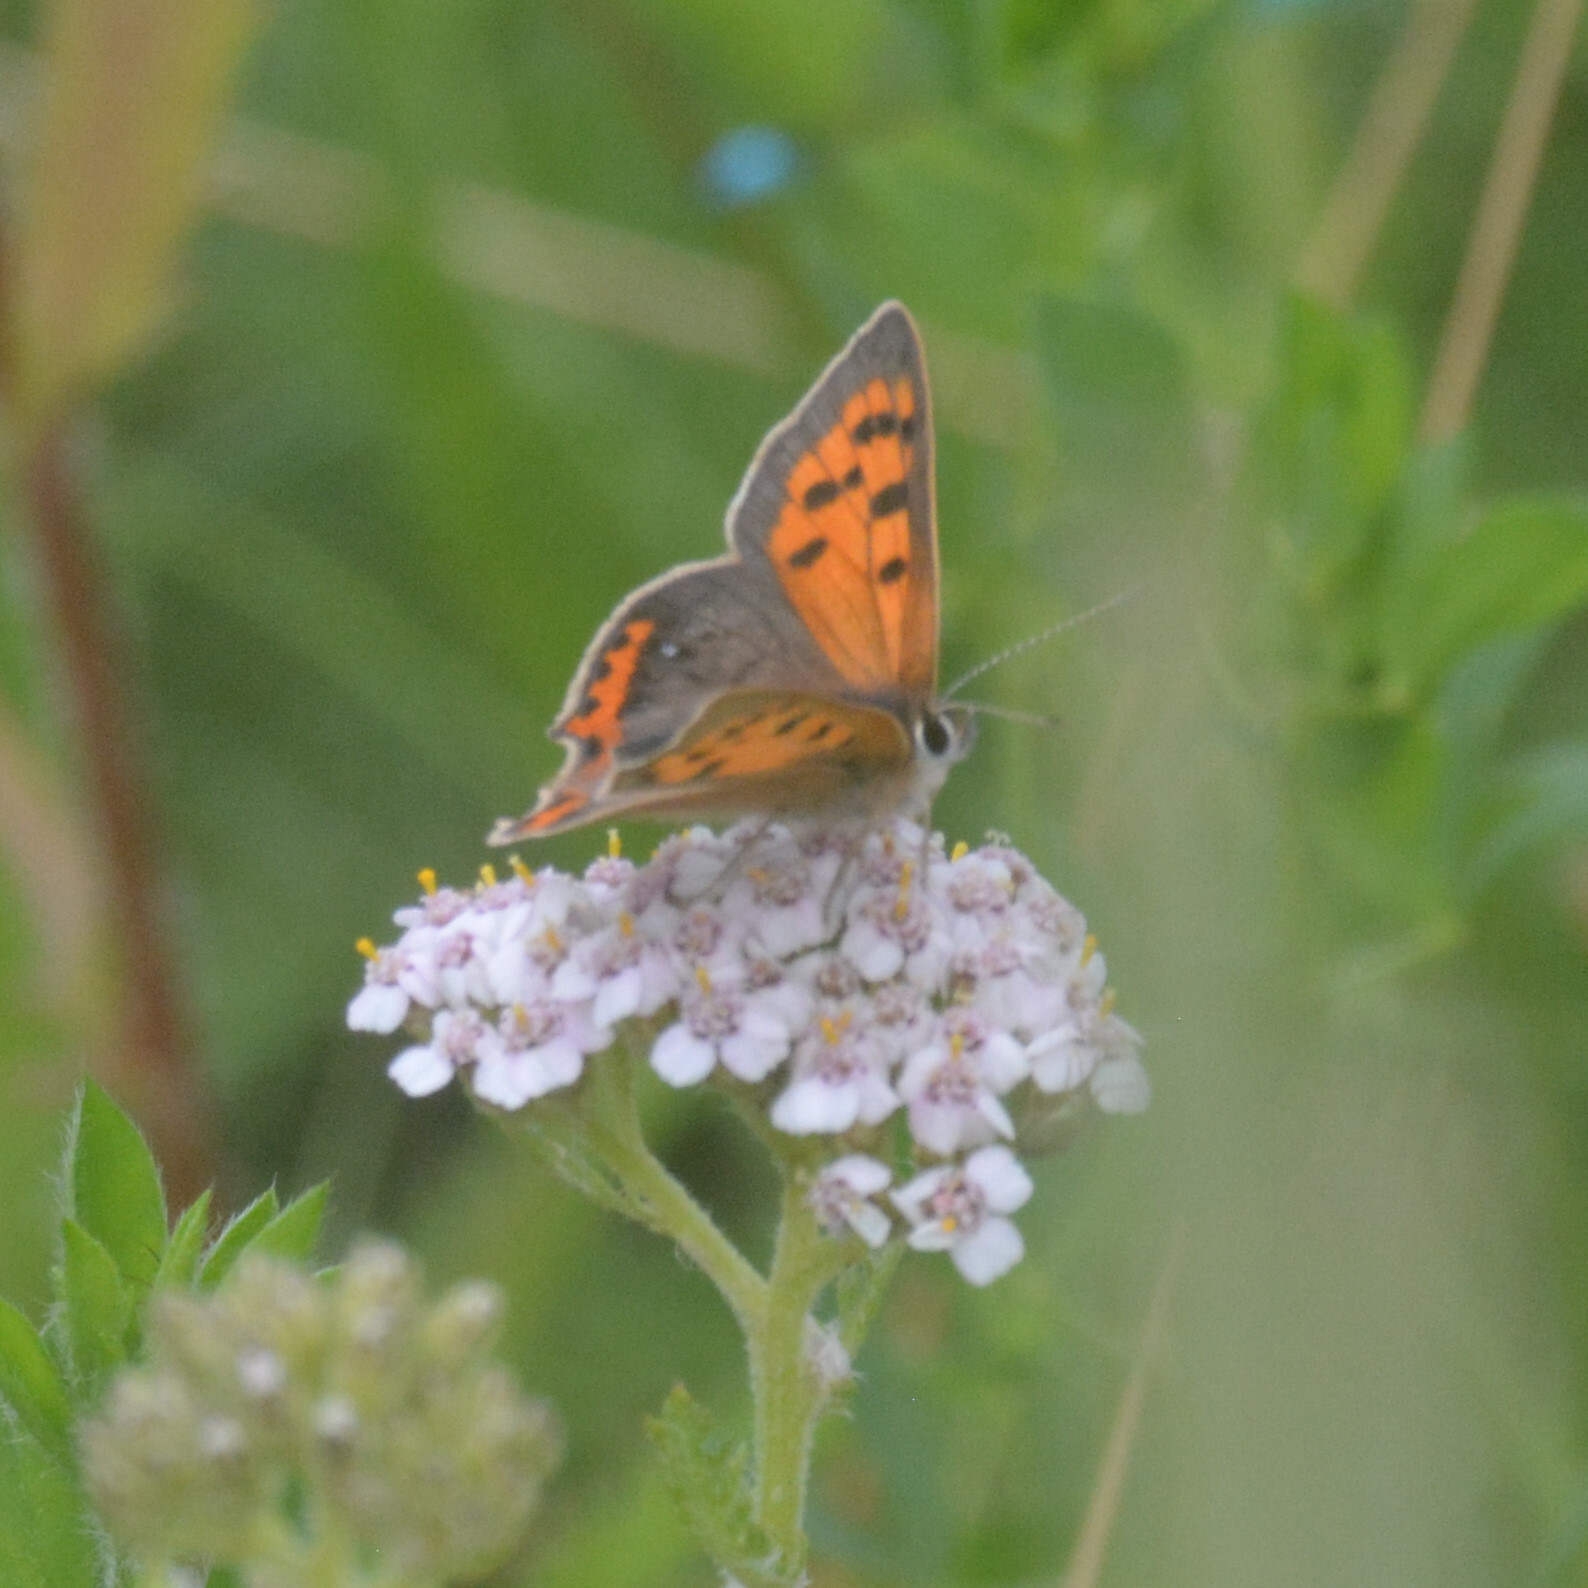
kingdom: Animalia
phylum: Arthropoda
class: Insecta
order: Lepidoptera
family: Lycaenidae
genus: Lycaena
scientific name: Lycaena phlaeas
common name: Small copper
